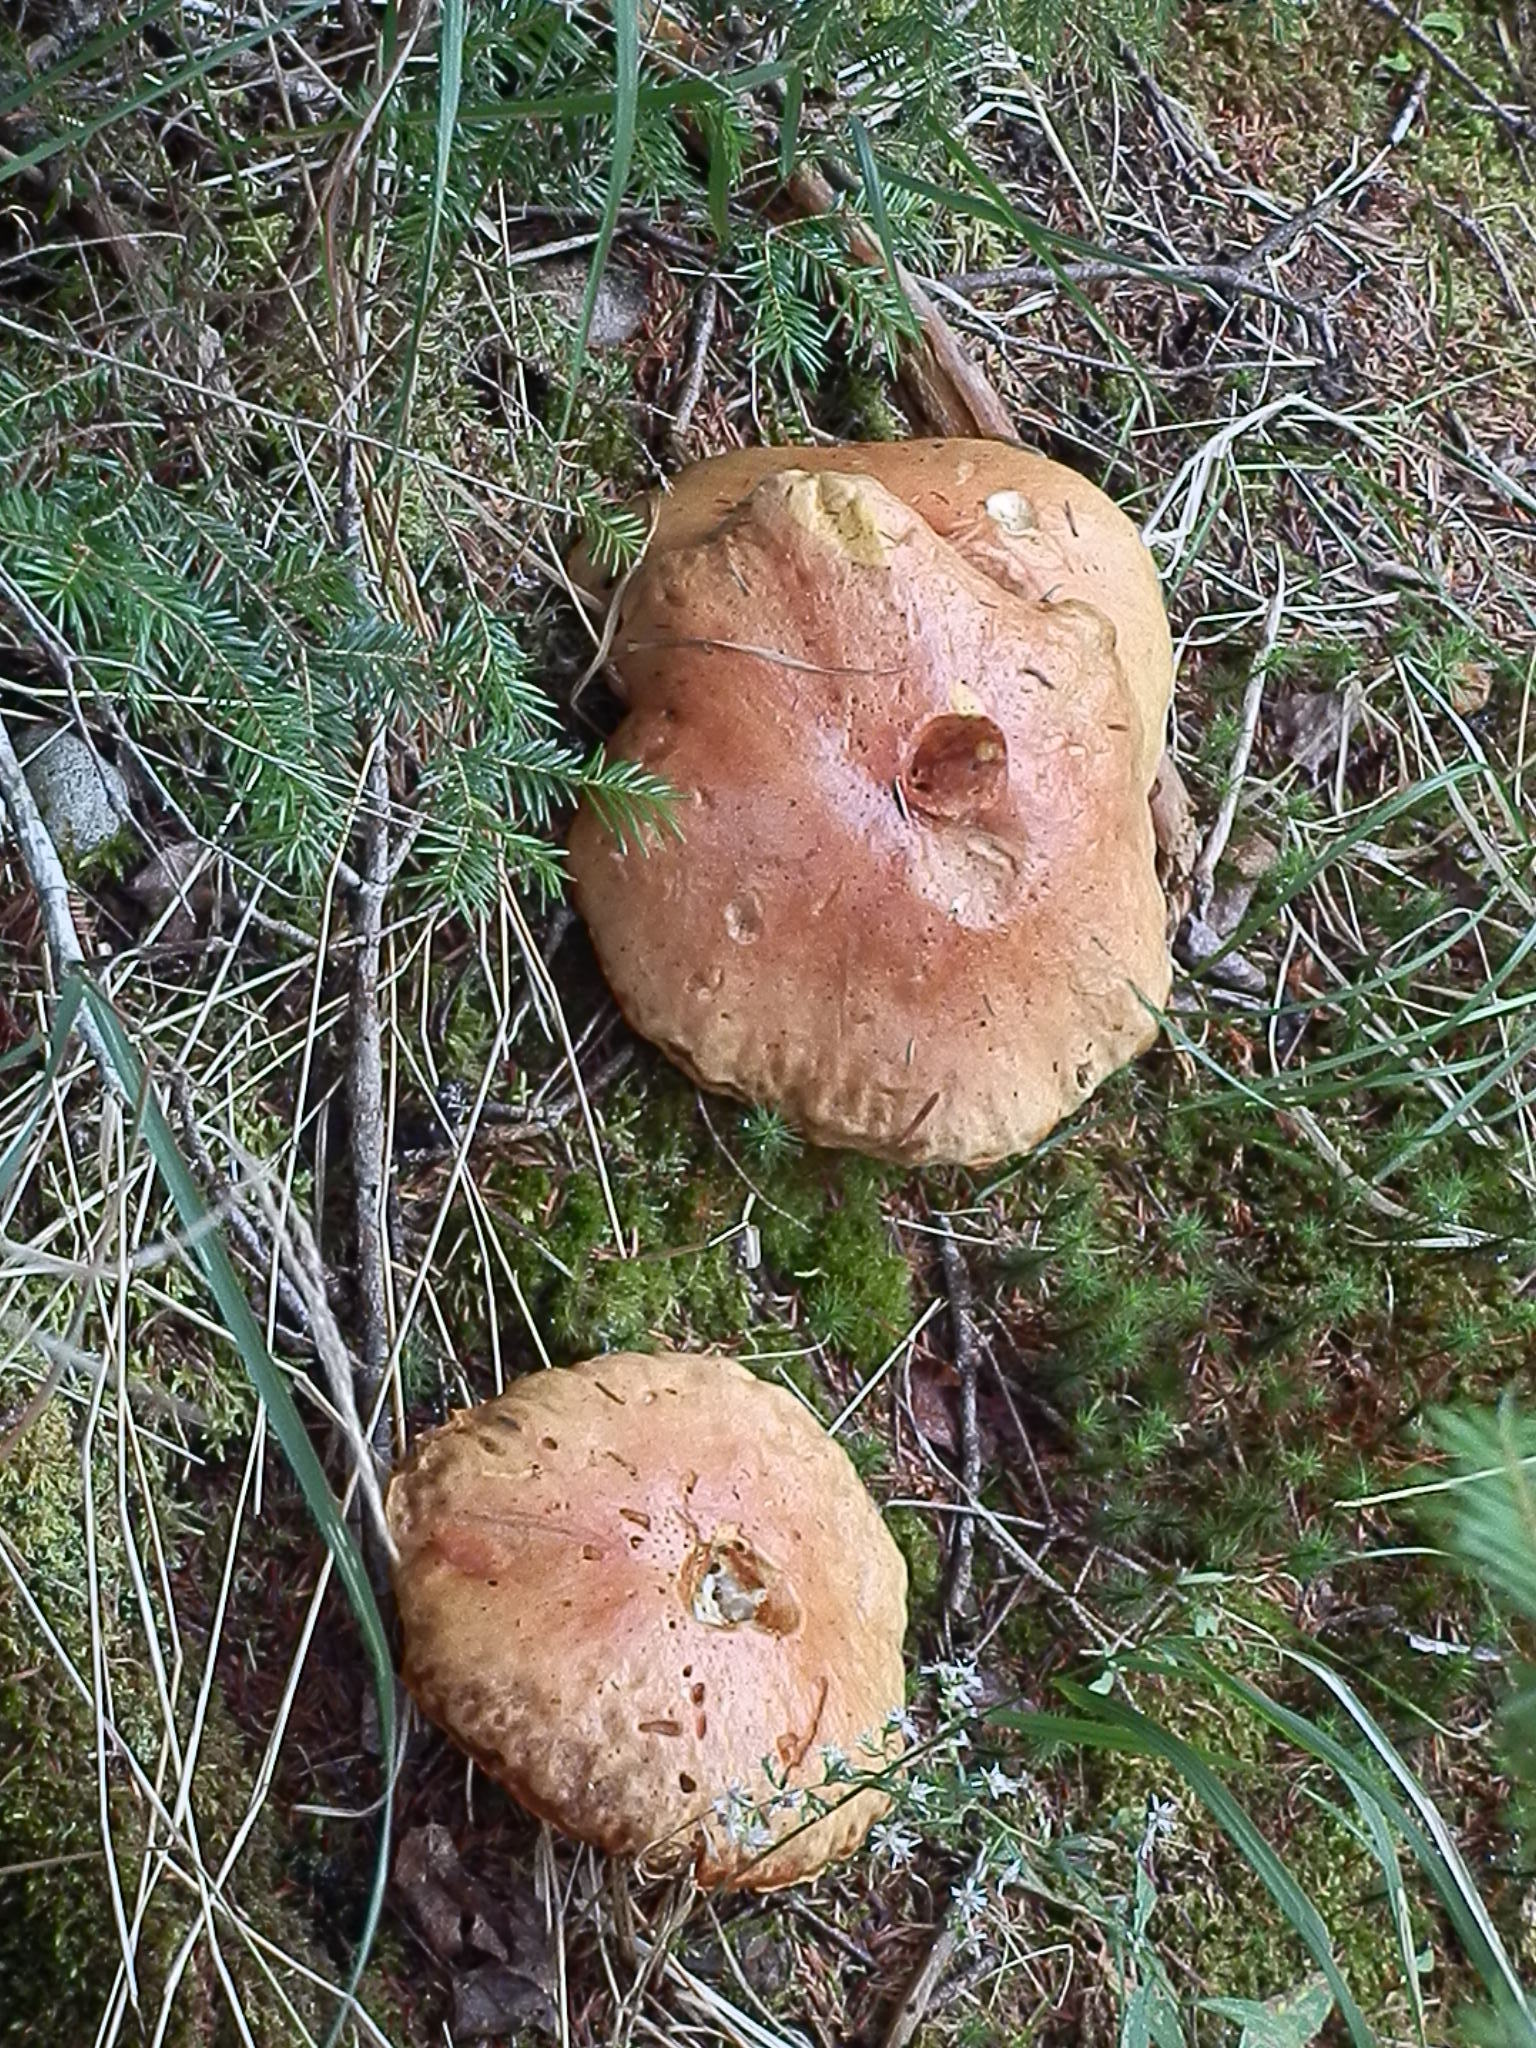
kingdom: Fungi
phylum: Basidiomycota
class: Agaricomycetes
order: Boletales
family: Boletaceae
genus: Boletus
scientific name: Boletus chippewaensis
